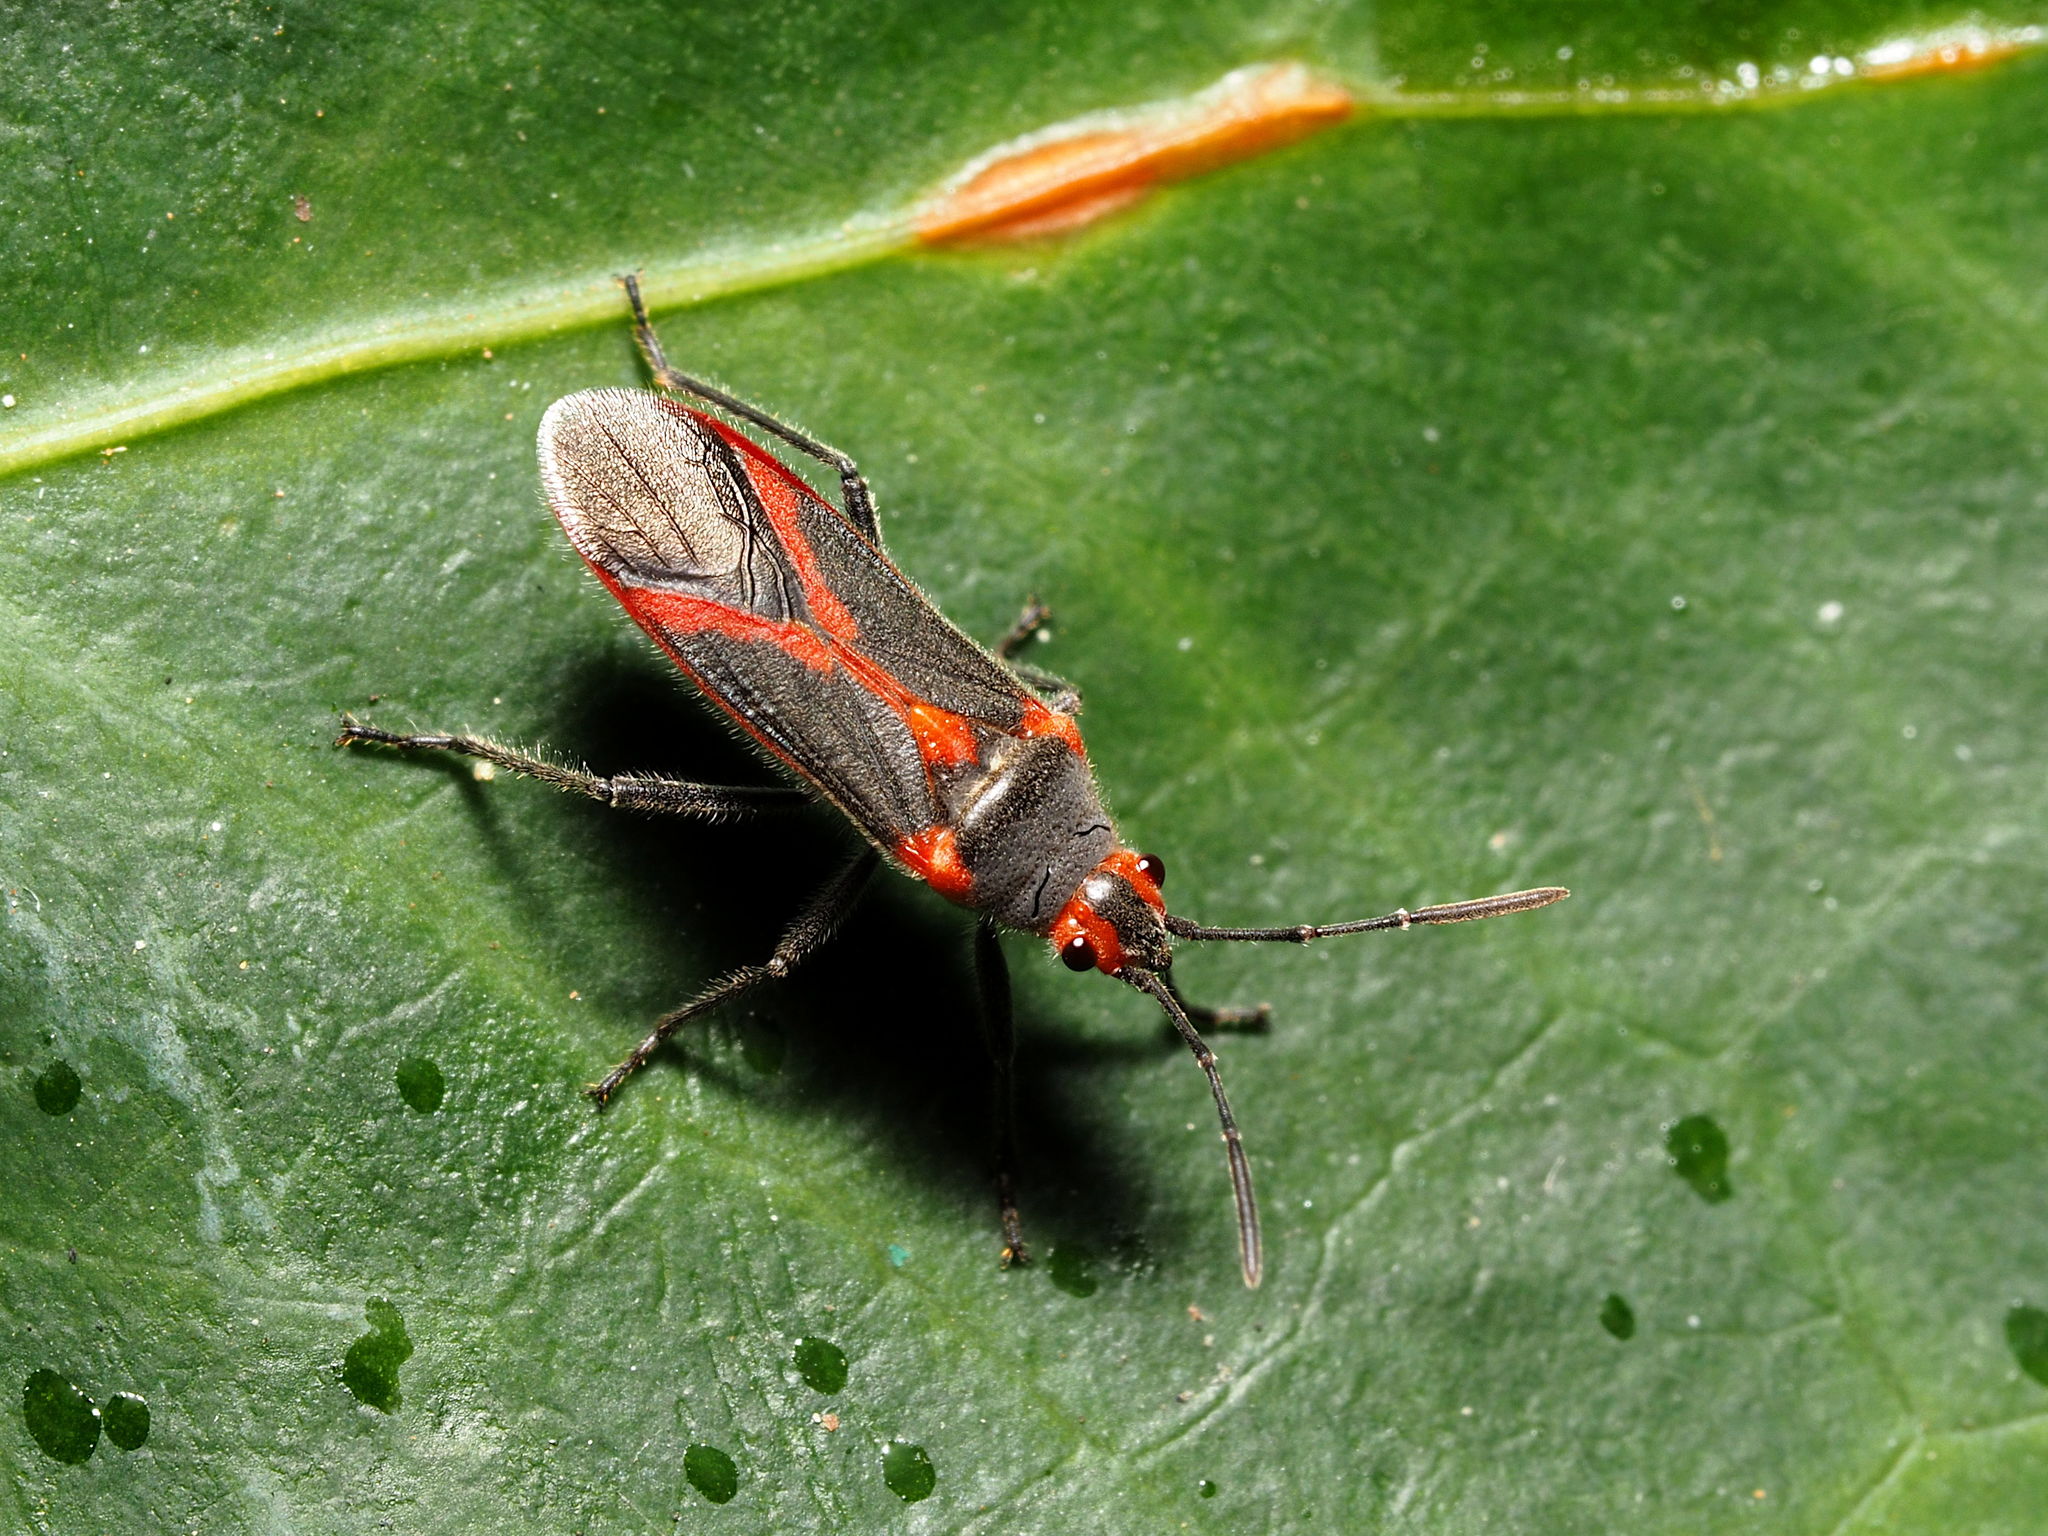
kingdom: Animalia
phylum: Arthropoda
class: Insecta
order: Hemiptera
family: Lygaeidae
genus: Caenocoris
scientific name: Caenocoris nerii
